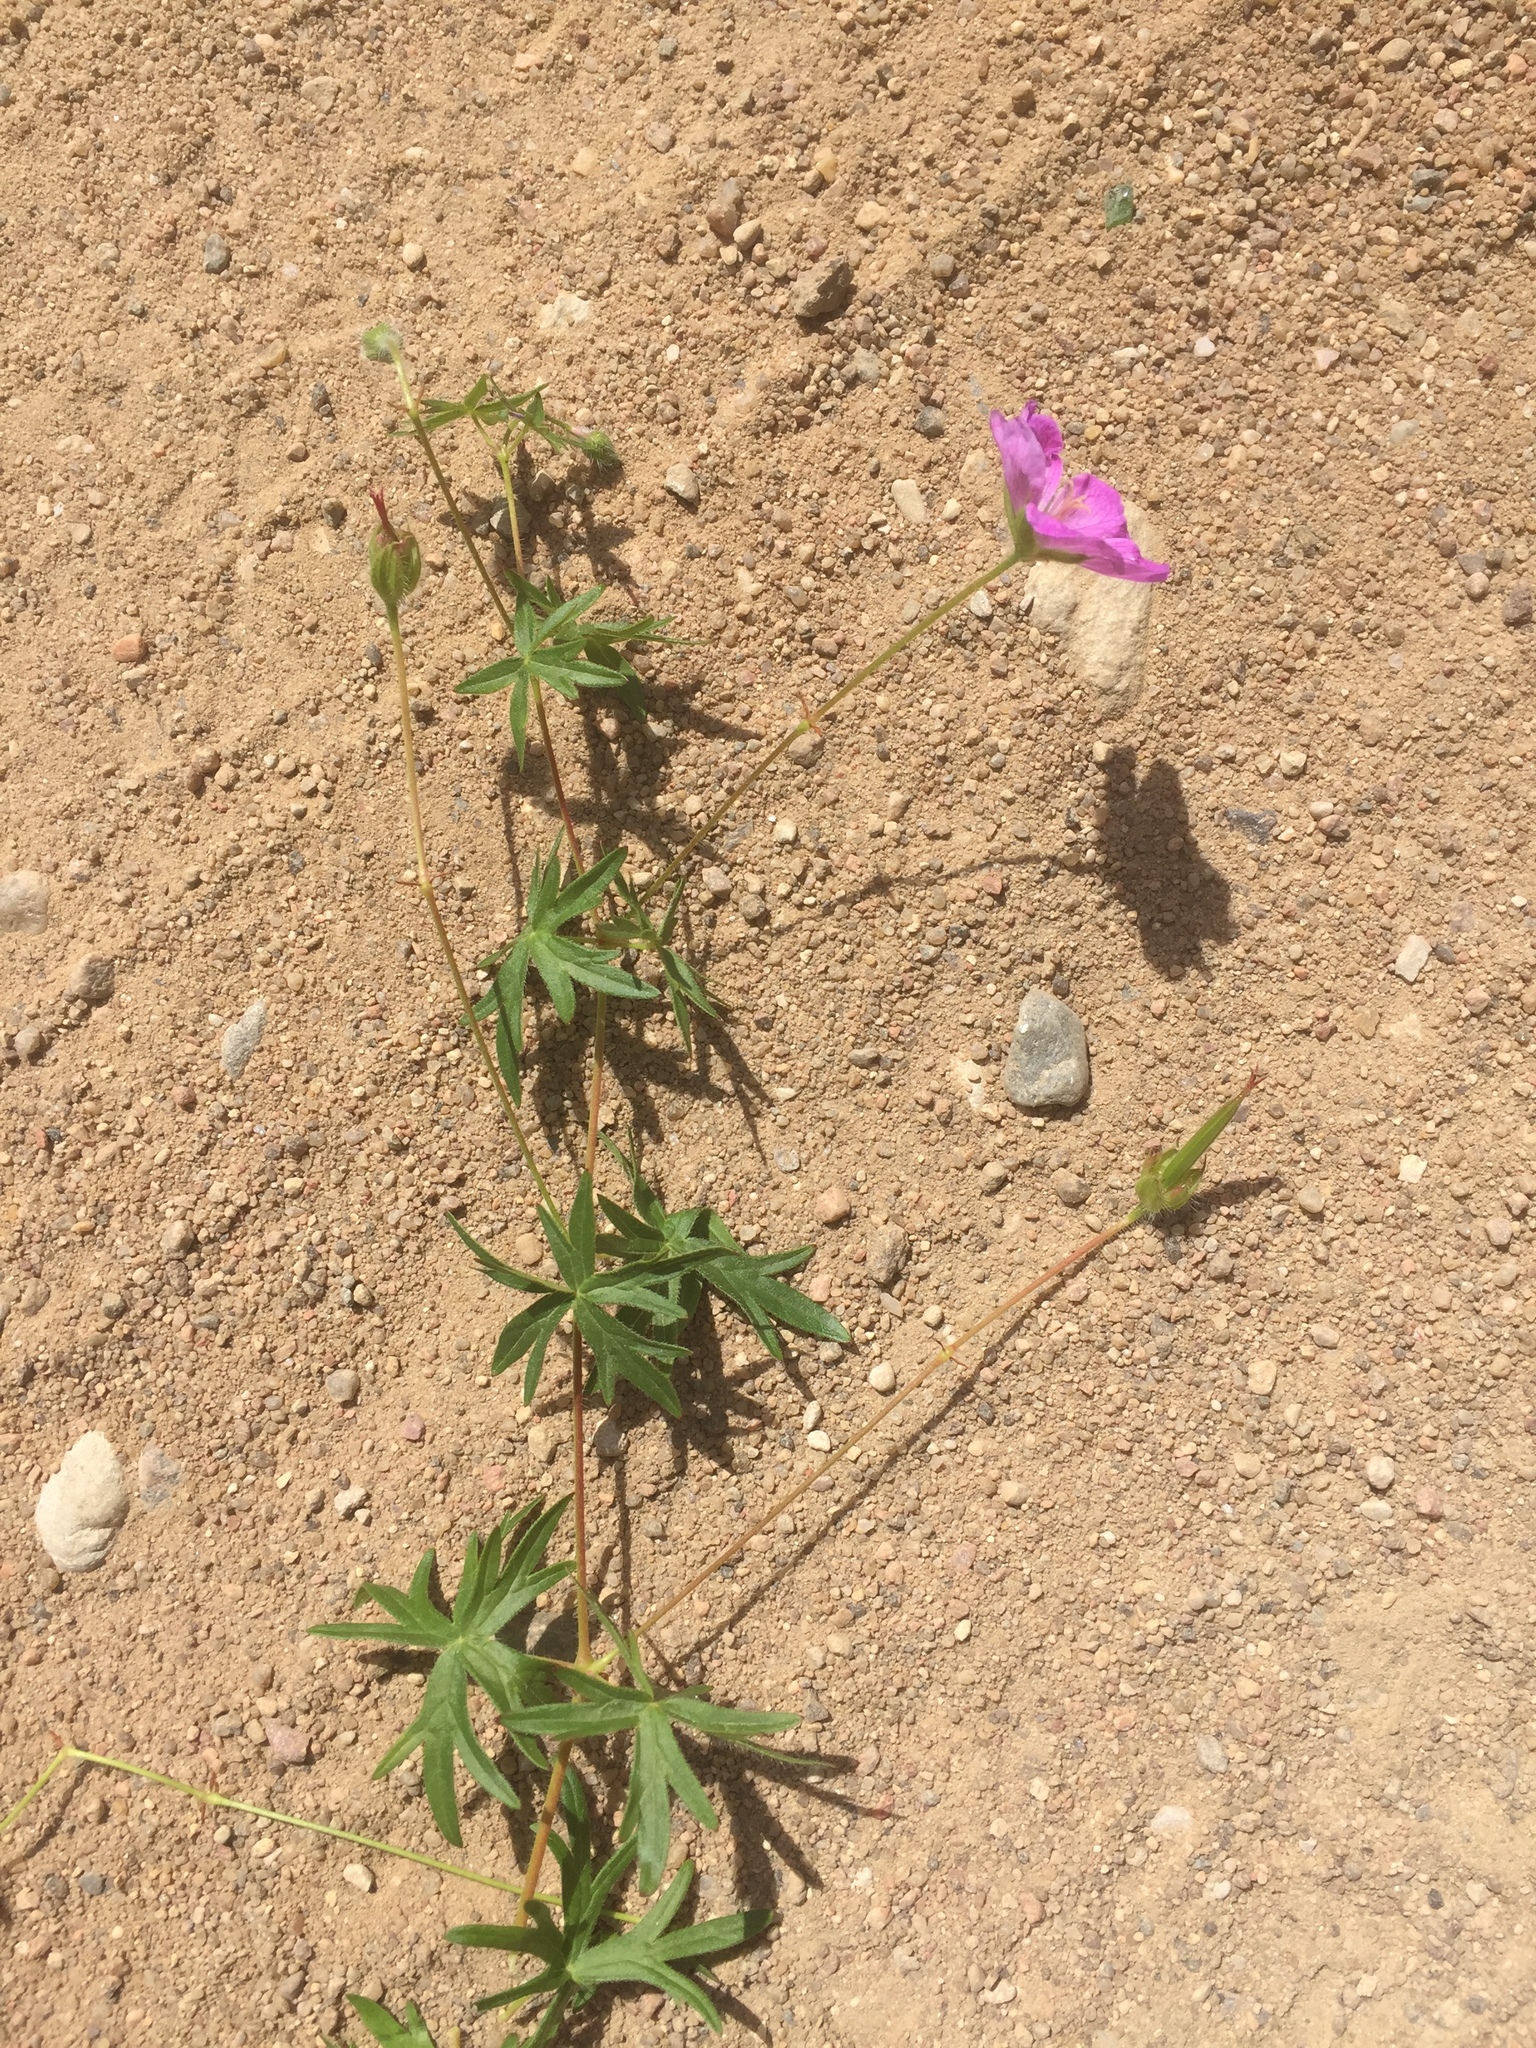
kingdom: Plantae
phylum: Tracheophyta
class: Magnoliopsida
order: Geraniales
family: Geraniaceae
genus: Geranium
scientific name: Geranium sanguineum
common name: Bloody crane's-bill
